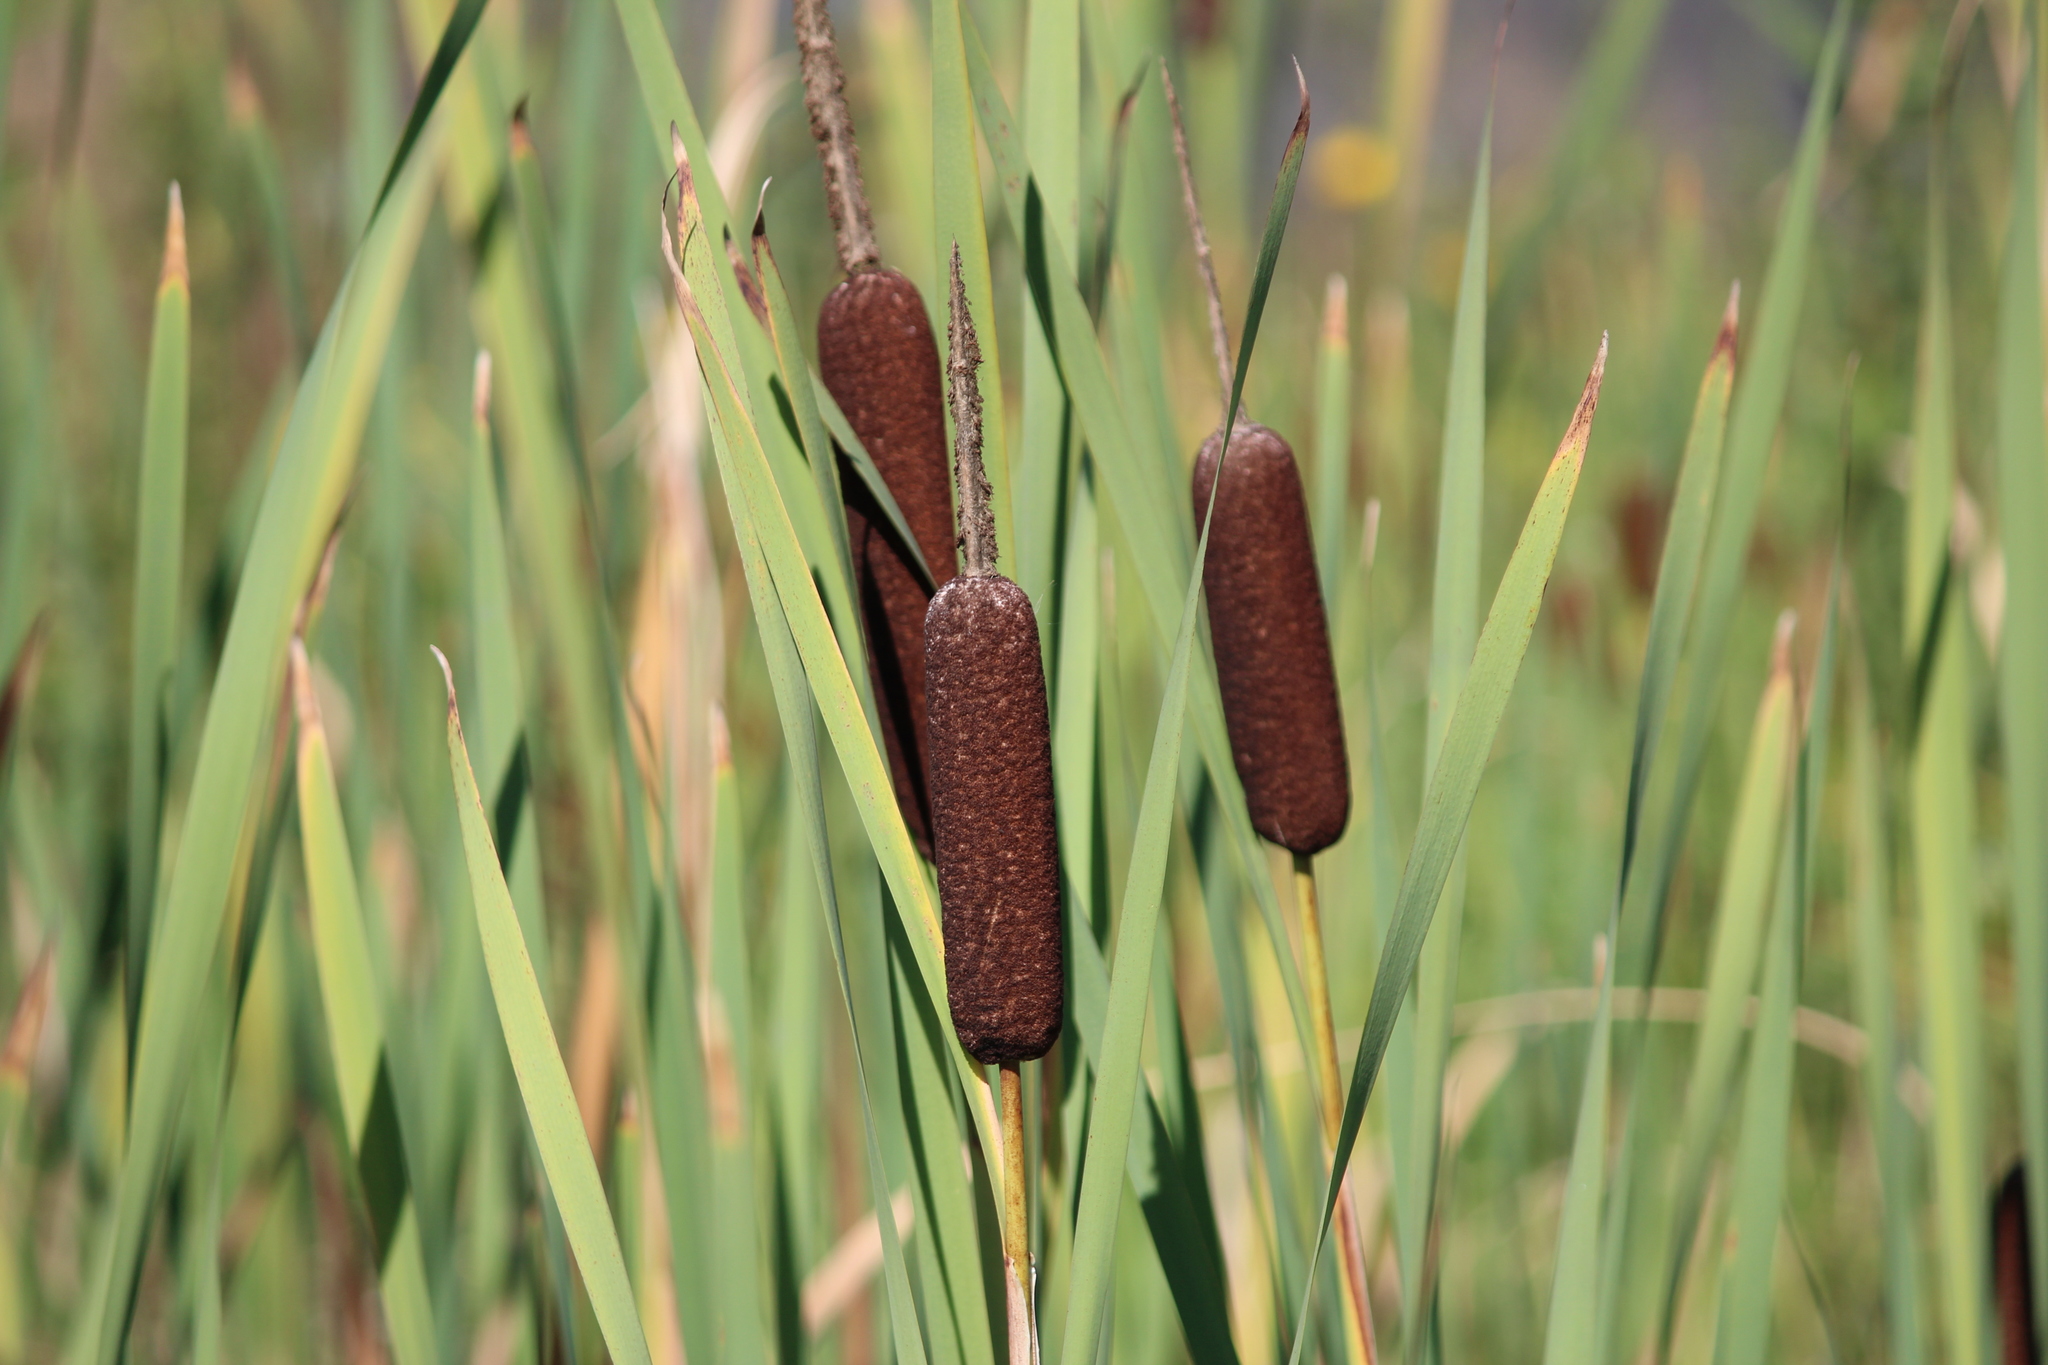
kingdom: Plantae
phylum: Tracheophyta
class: Liliopsida
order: Poales
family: Typhaceae
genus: Typha
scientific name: Typha latifolia
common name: Broadleaf cattail
